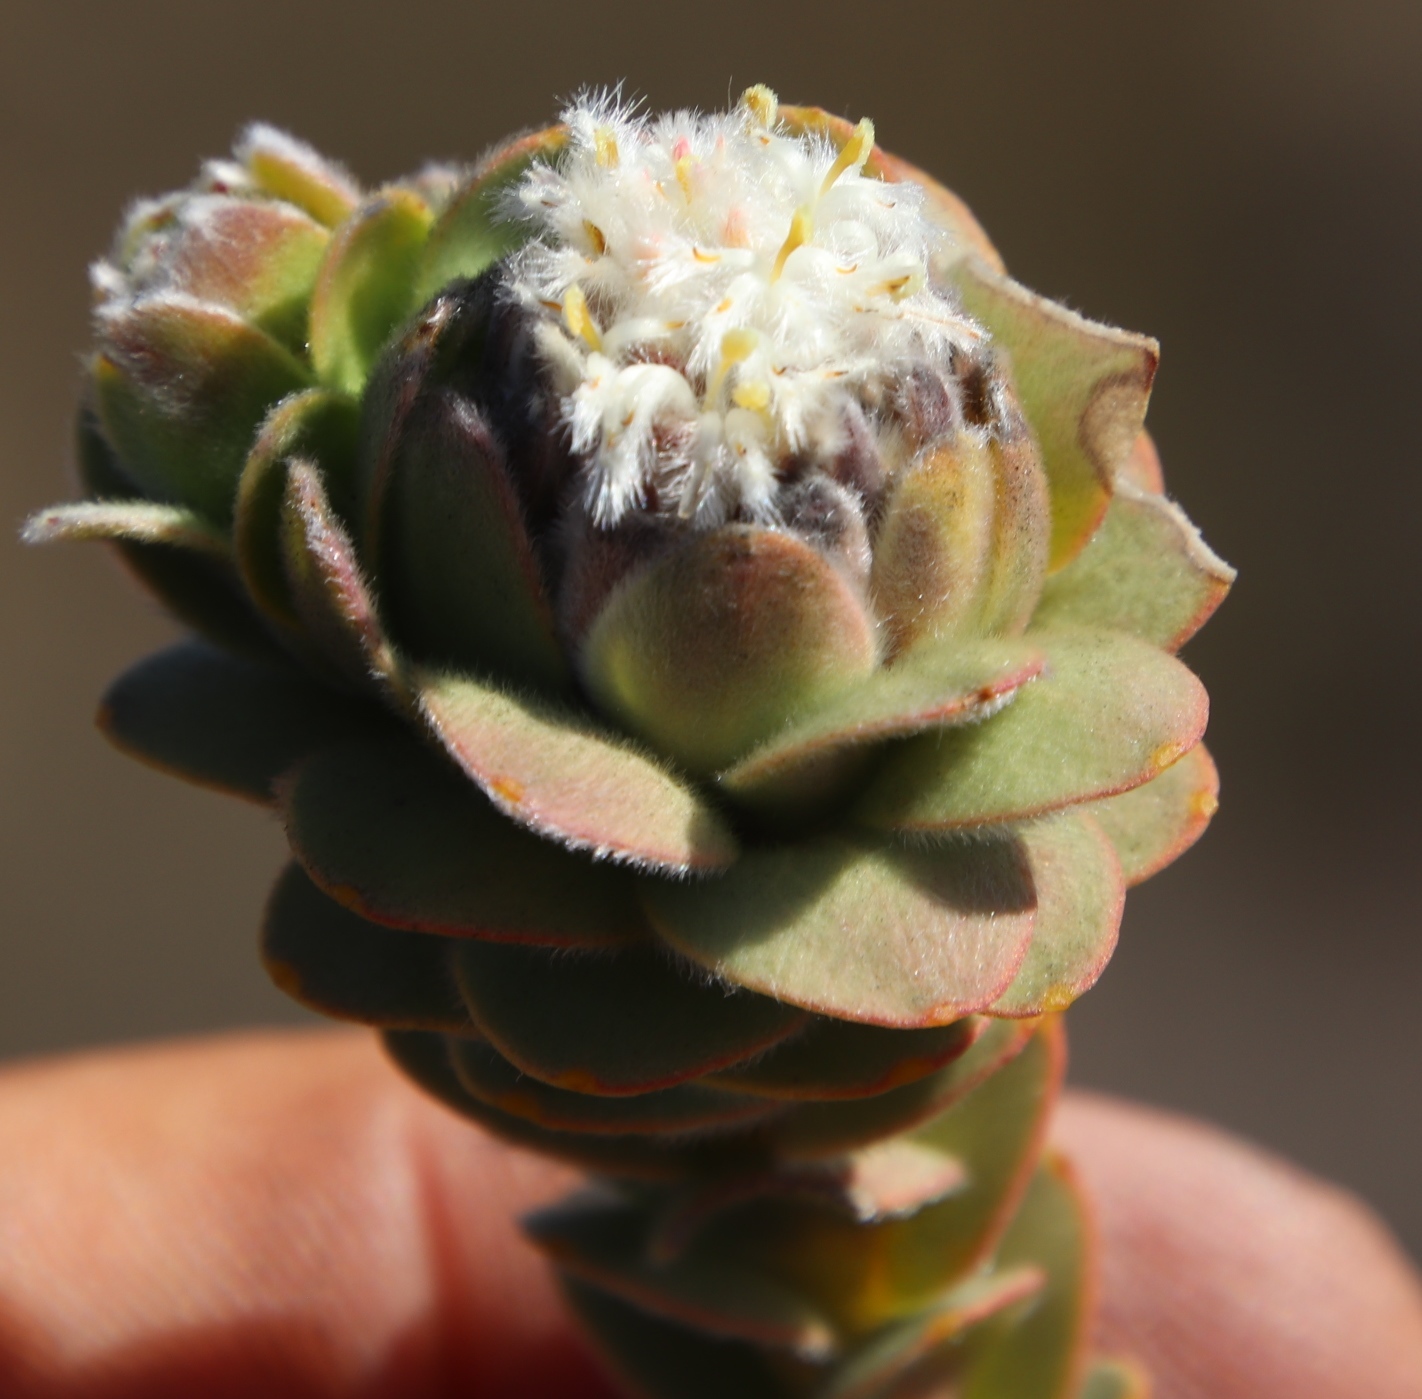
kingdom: Plantae
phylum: Tracheophyta
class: Magnoliopsida
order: Proteales
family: Proteaceae
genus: Leucadendron
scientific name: Leucadendron concavum
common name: Pakhuis conebush
